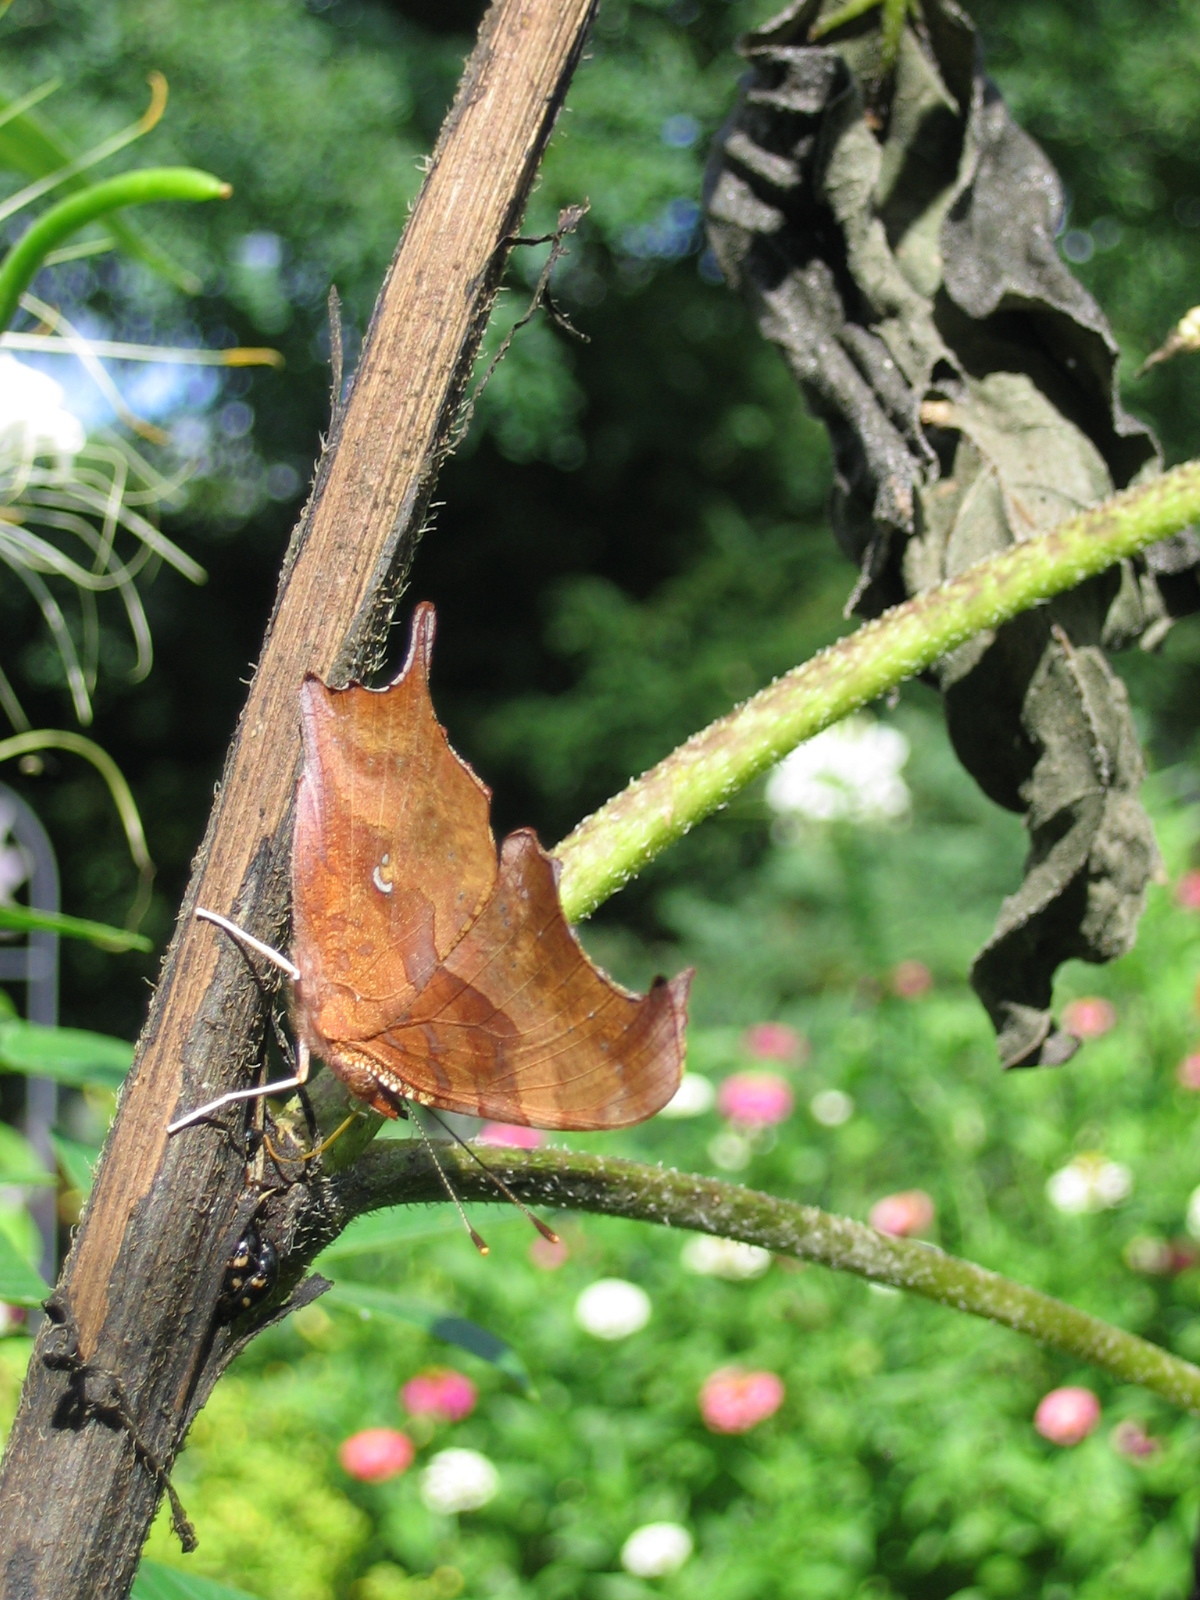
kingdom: Animalia
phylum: Arthropoda
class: Insecta
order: Lepidoptera
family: Nymphalidae
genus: Polygonia
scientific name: Polygonia interrogationis
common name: Question mark
